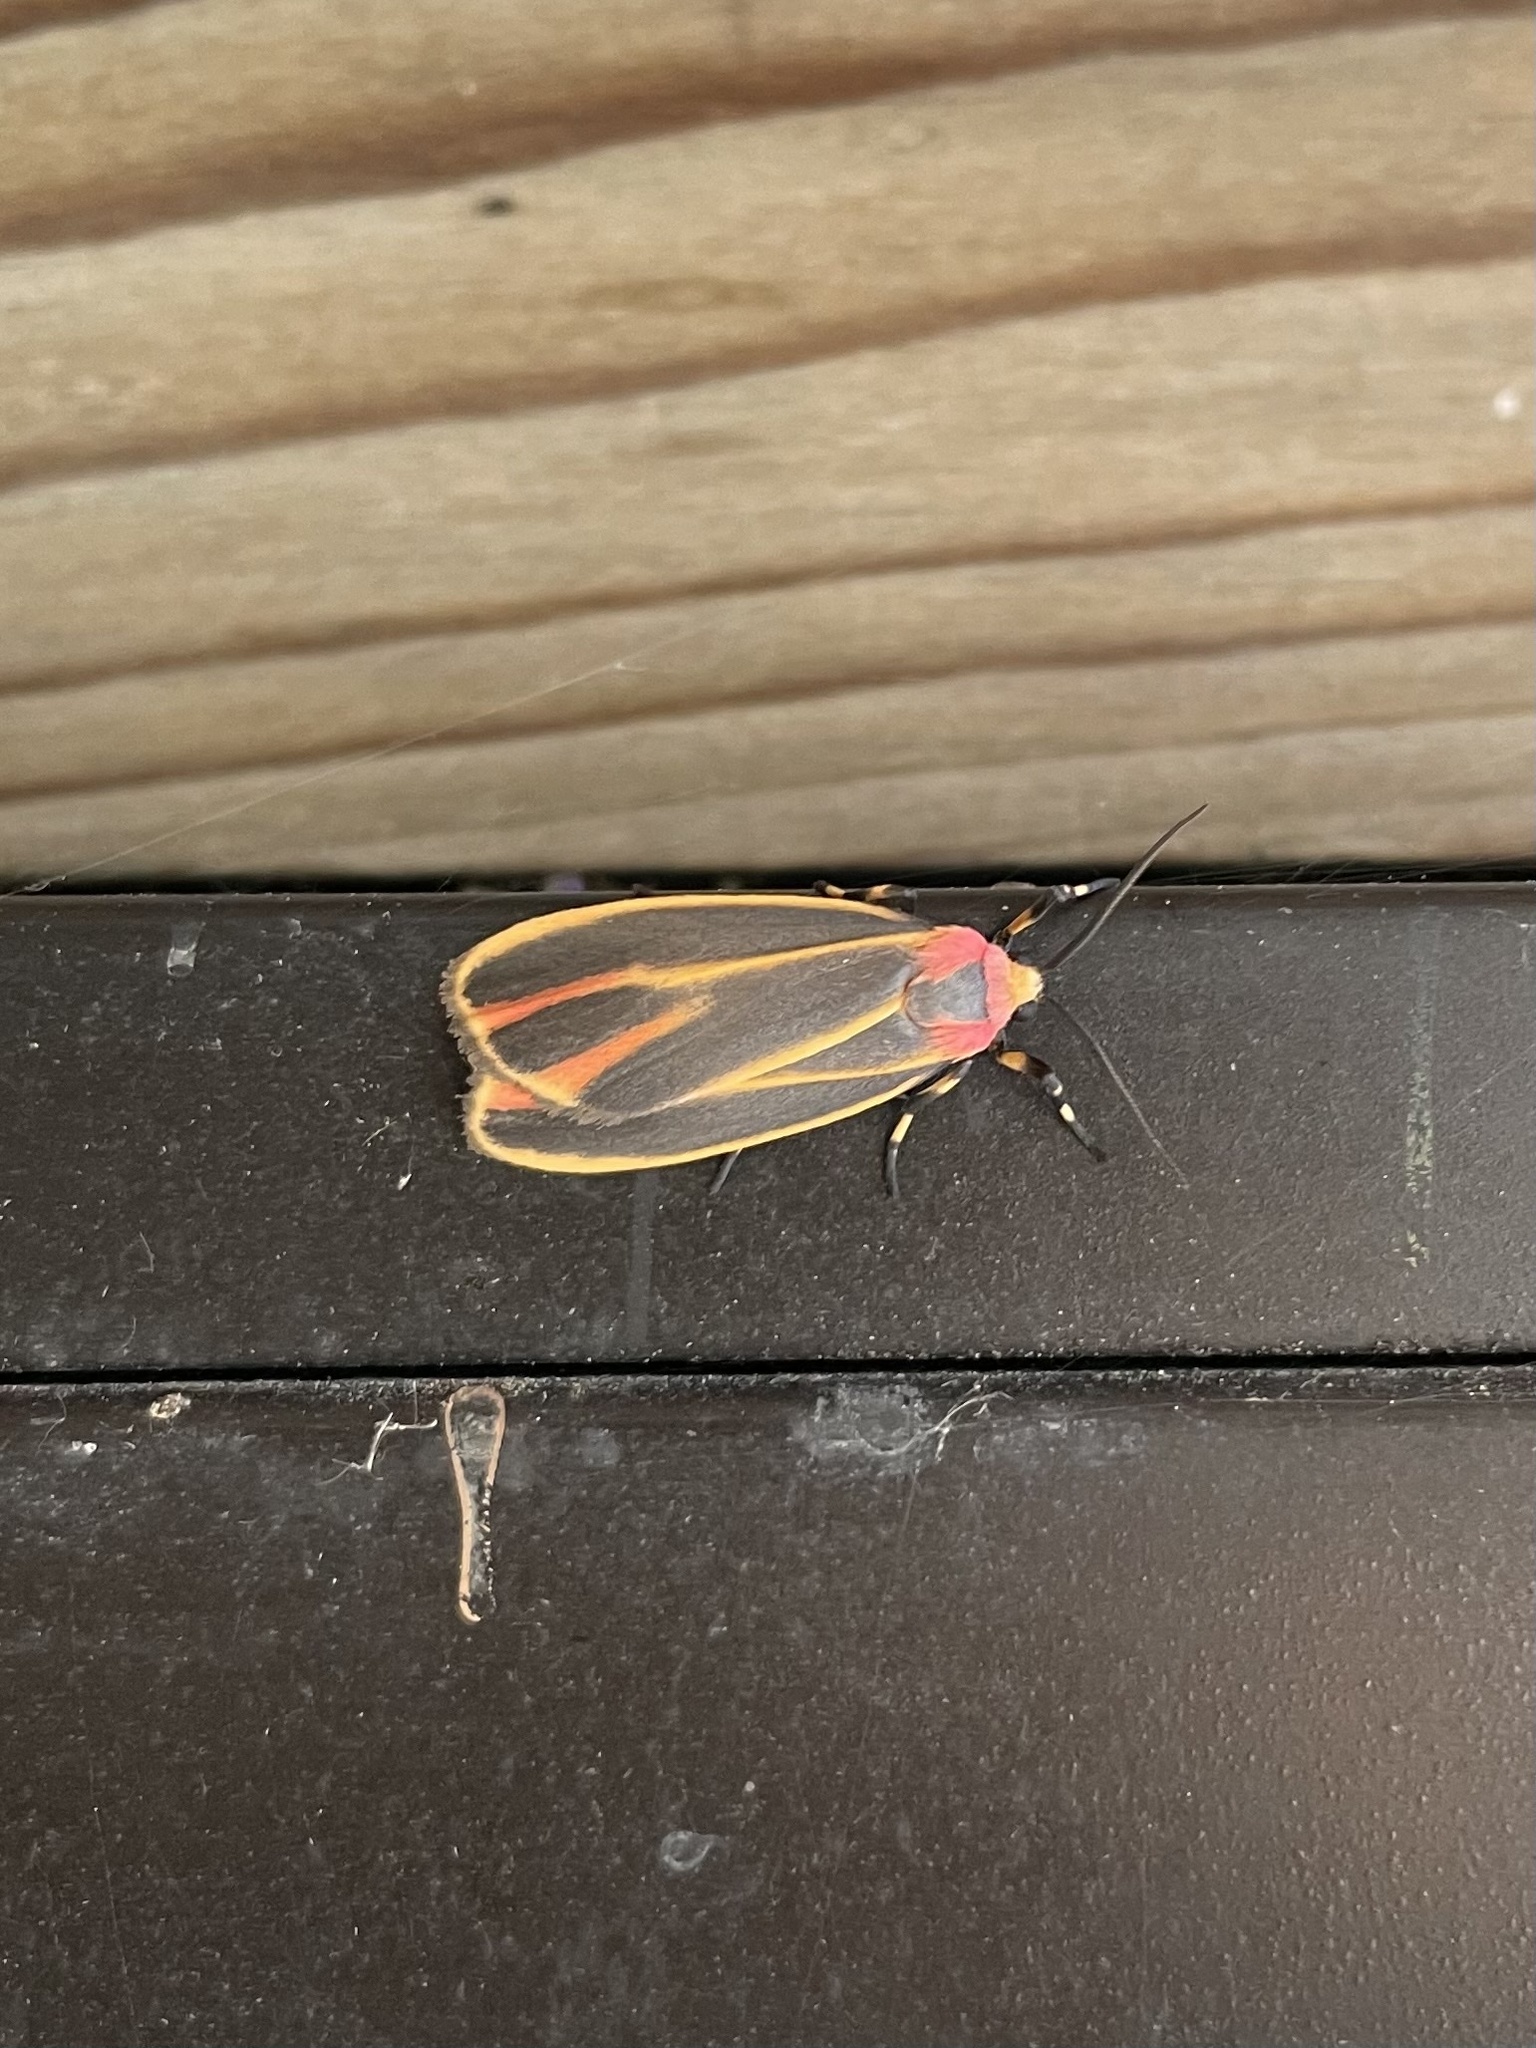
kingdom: Animalia
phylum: Arthropoda
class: Insecta
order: Lepidoptera
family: Erebidae
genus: Hypoprepia
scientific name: Hypoprepia fucosa
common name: Painted lichen moth
